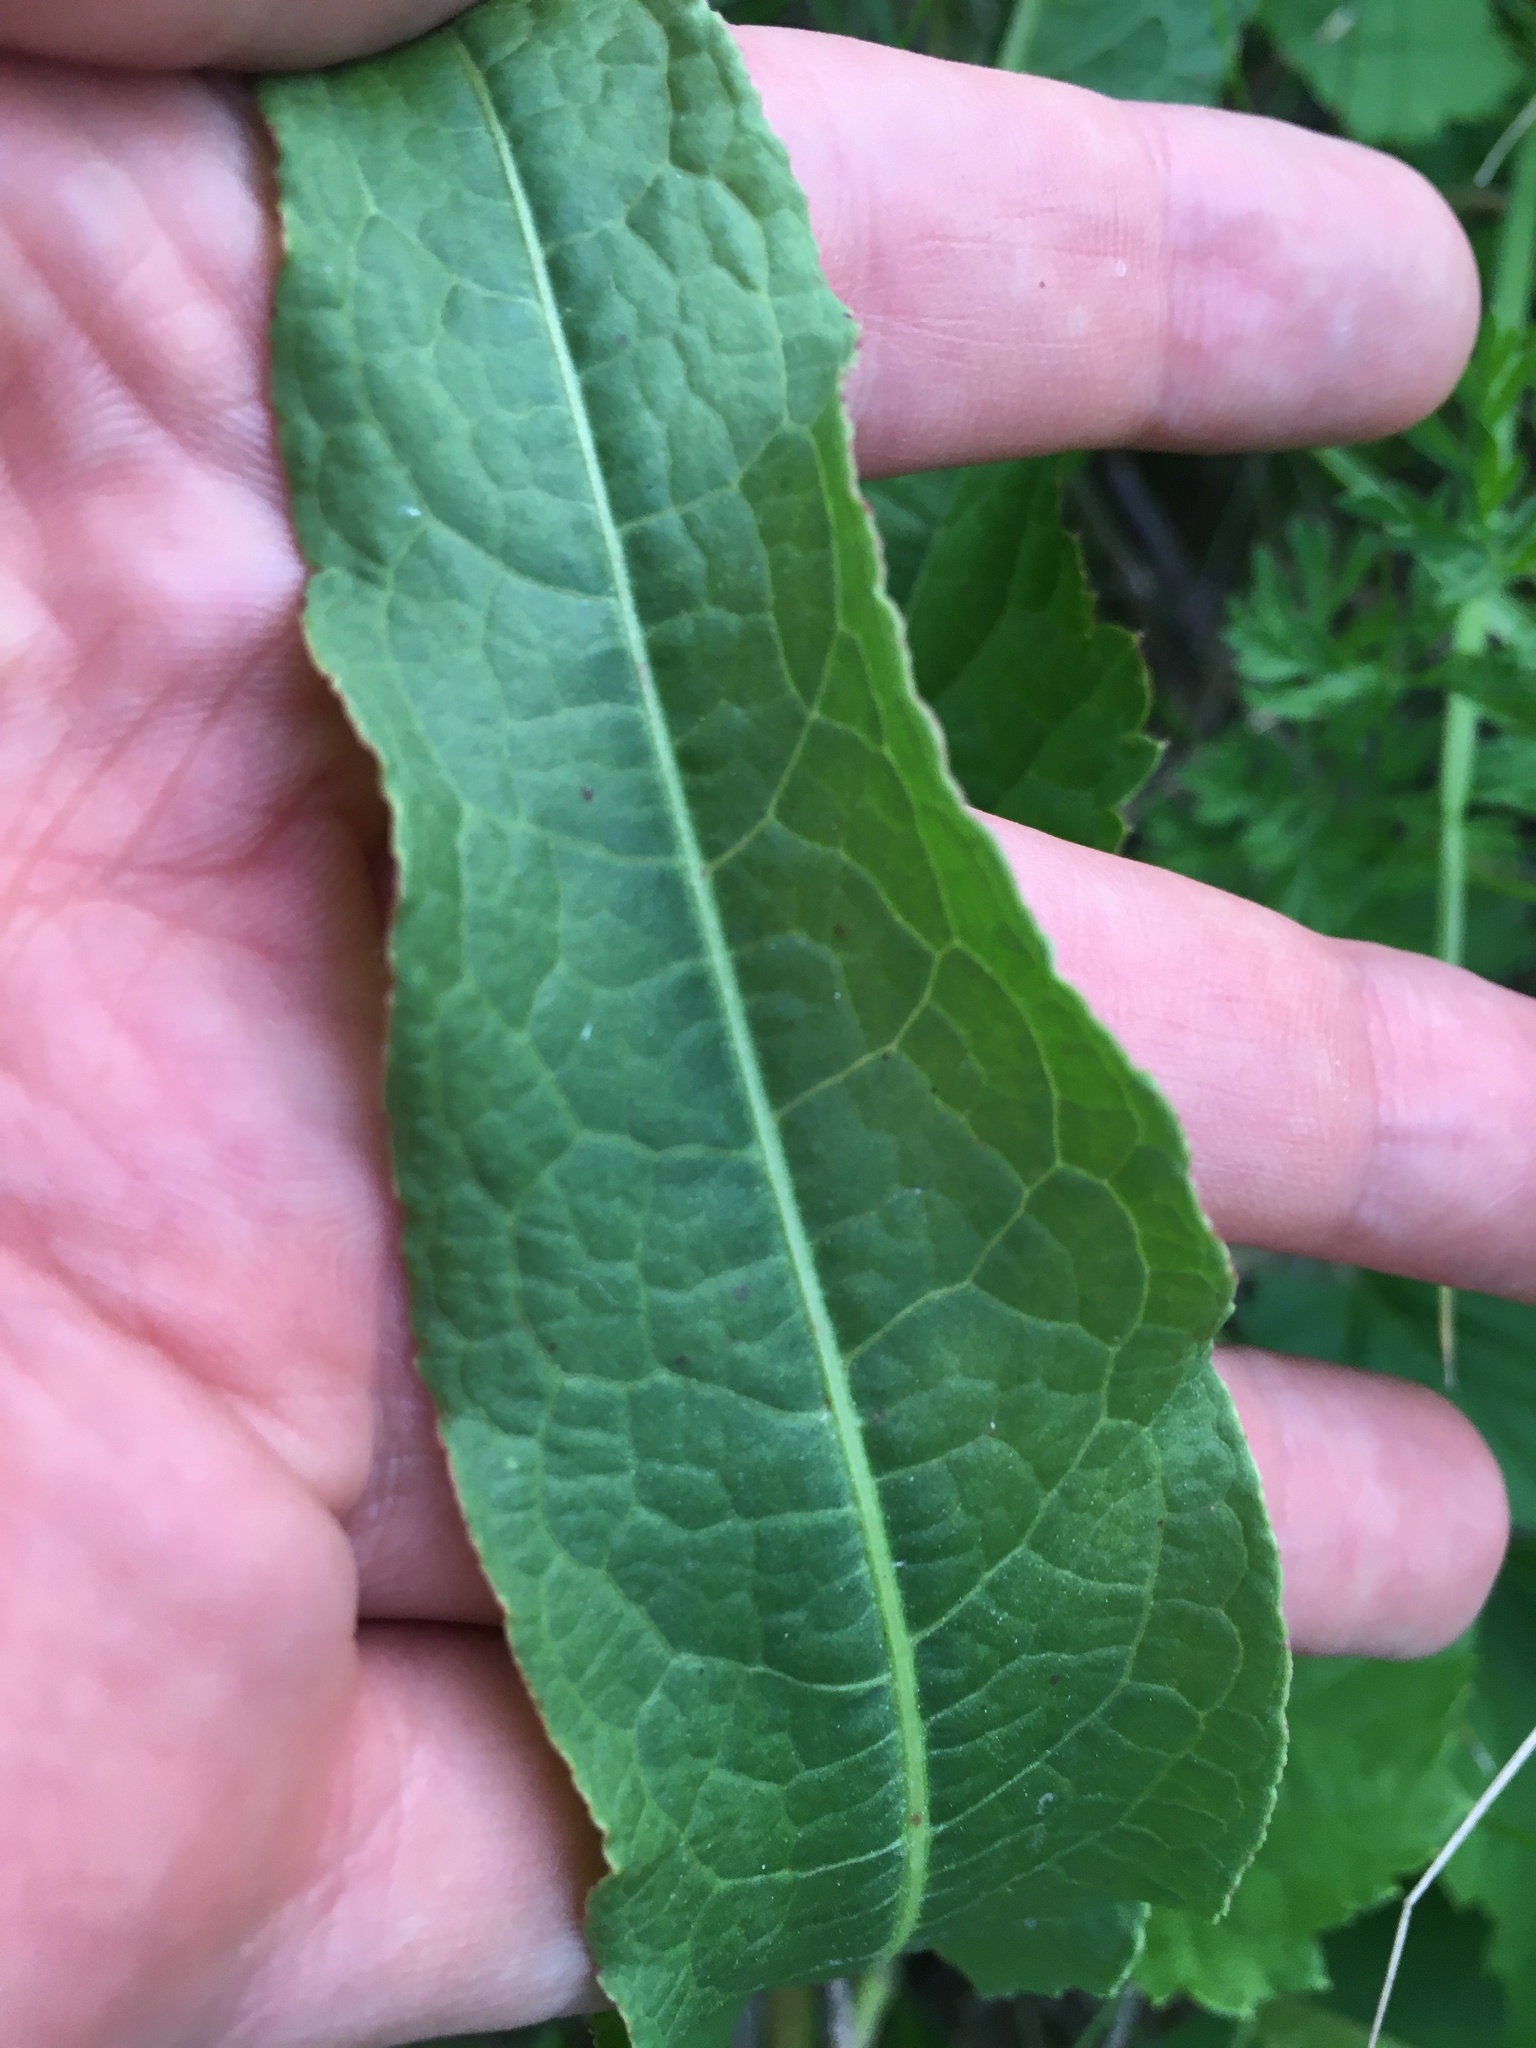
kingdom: Plantae
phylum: Tracheophyta
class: Magnoliopsida
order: Caryophyllales
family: Polygonaceae
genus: Rumex
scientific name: Rumex crispus
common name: Curled dock
